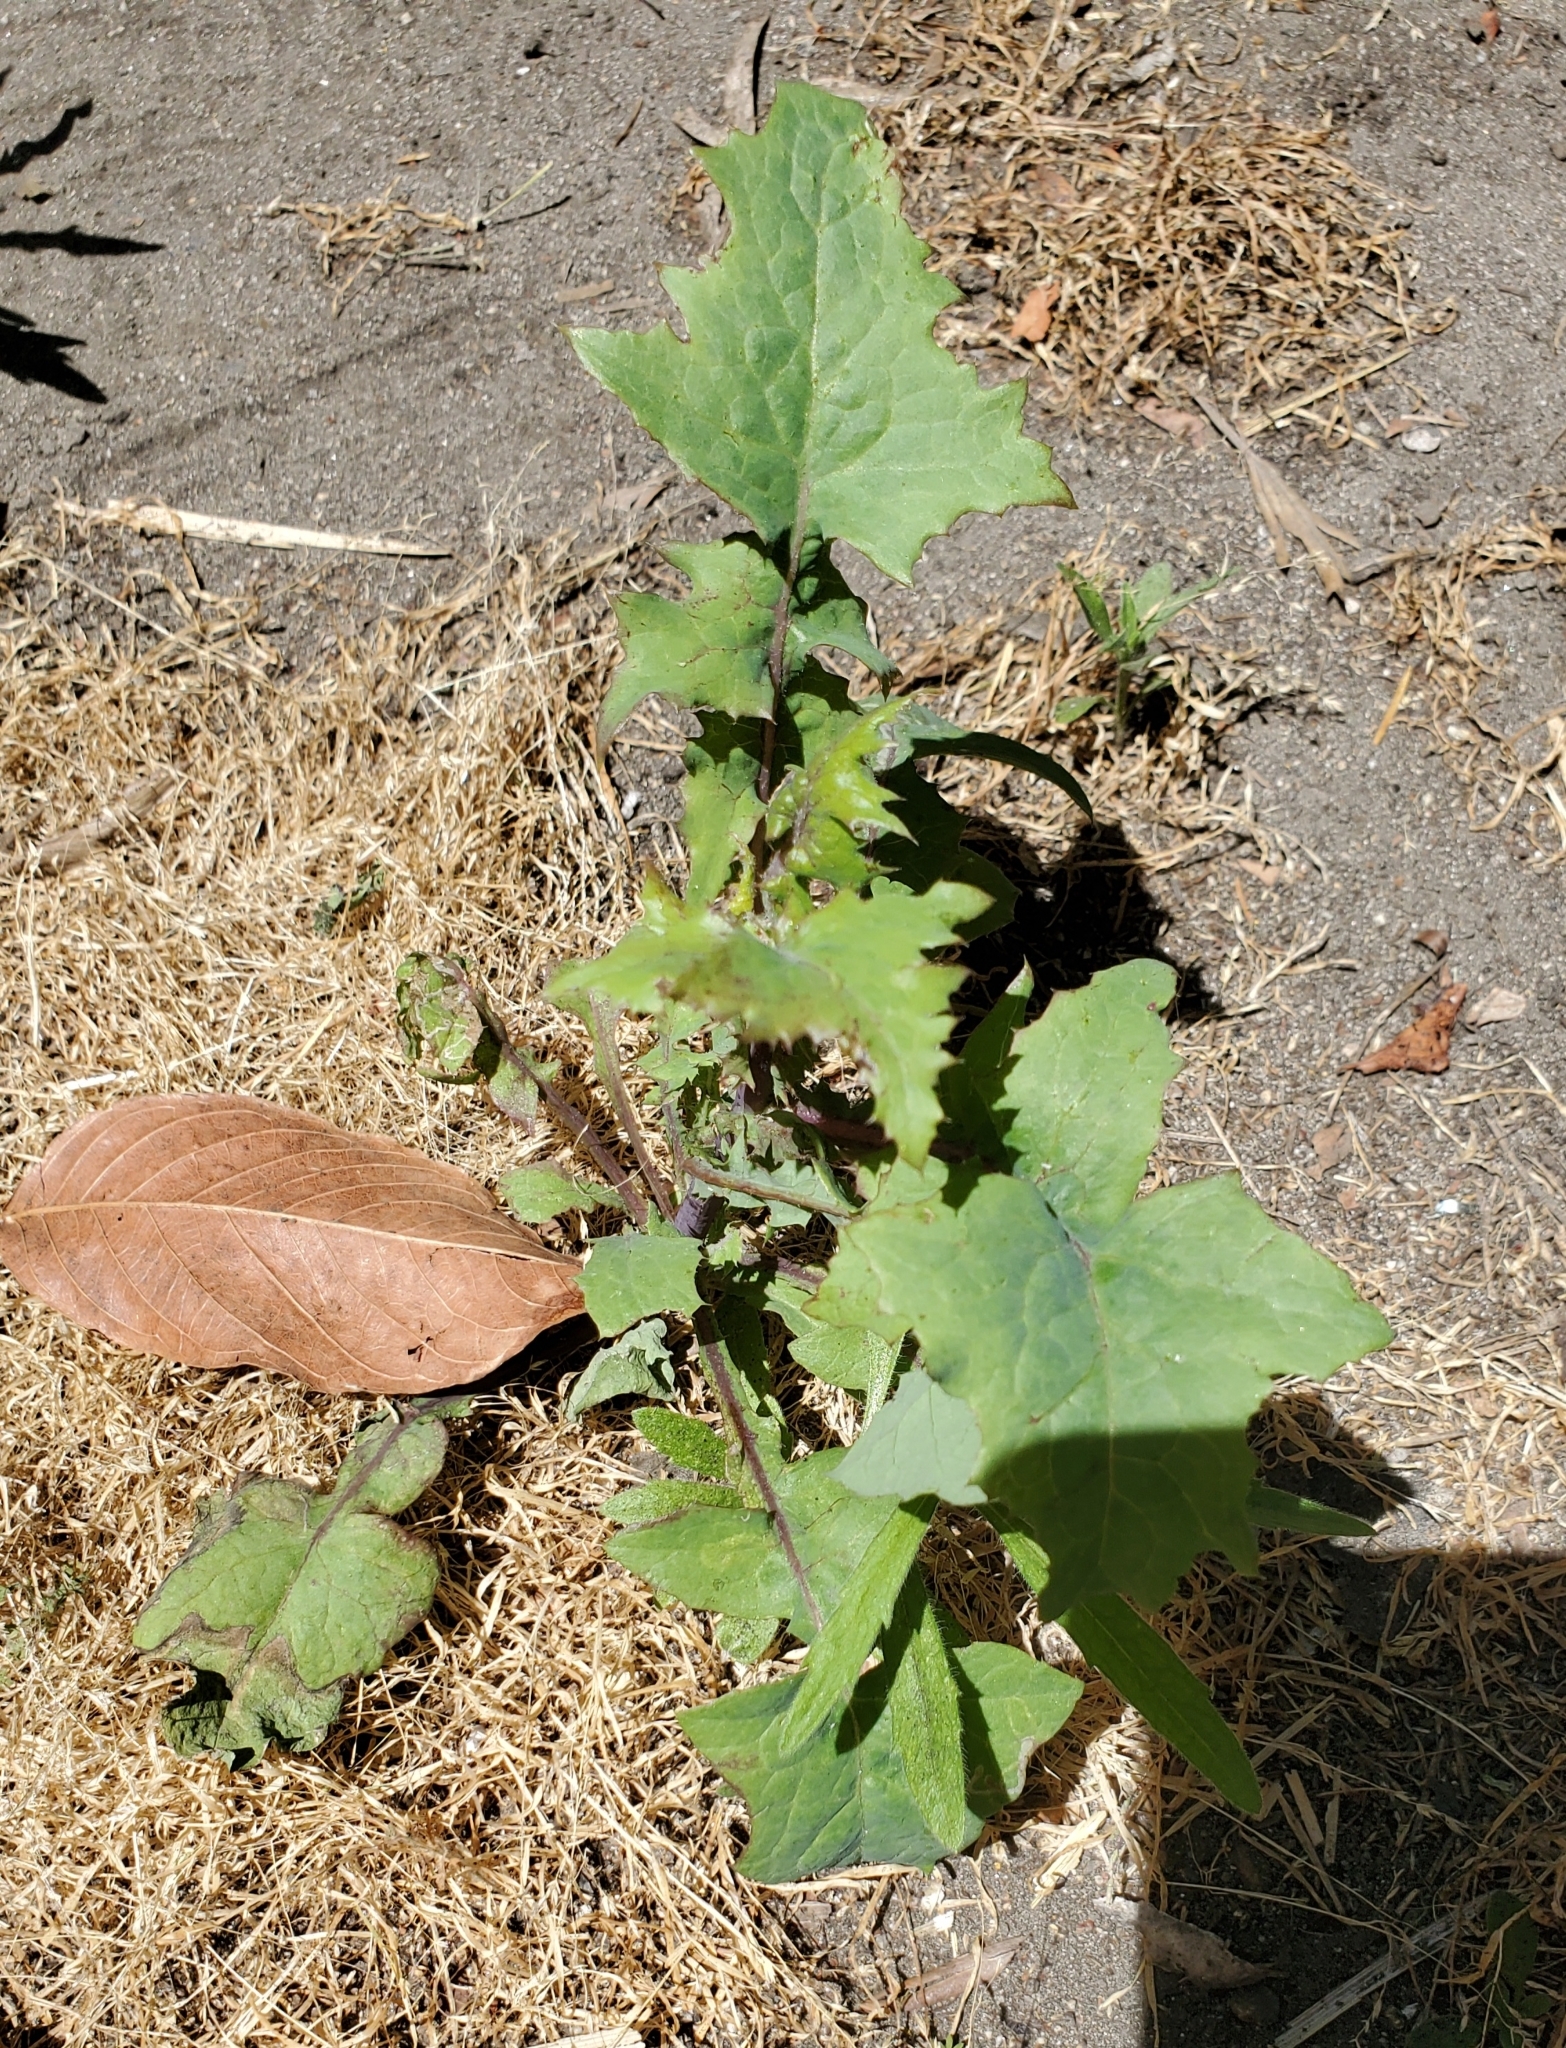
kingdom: Plantae
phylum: Tracheophyta
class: Magnoliopsida
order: Asterales
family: Asteraceae
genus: Sonchus
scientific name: Sonchus oleraceus
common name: Common sowthistle
